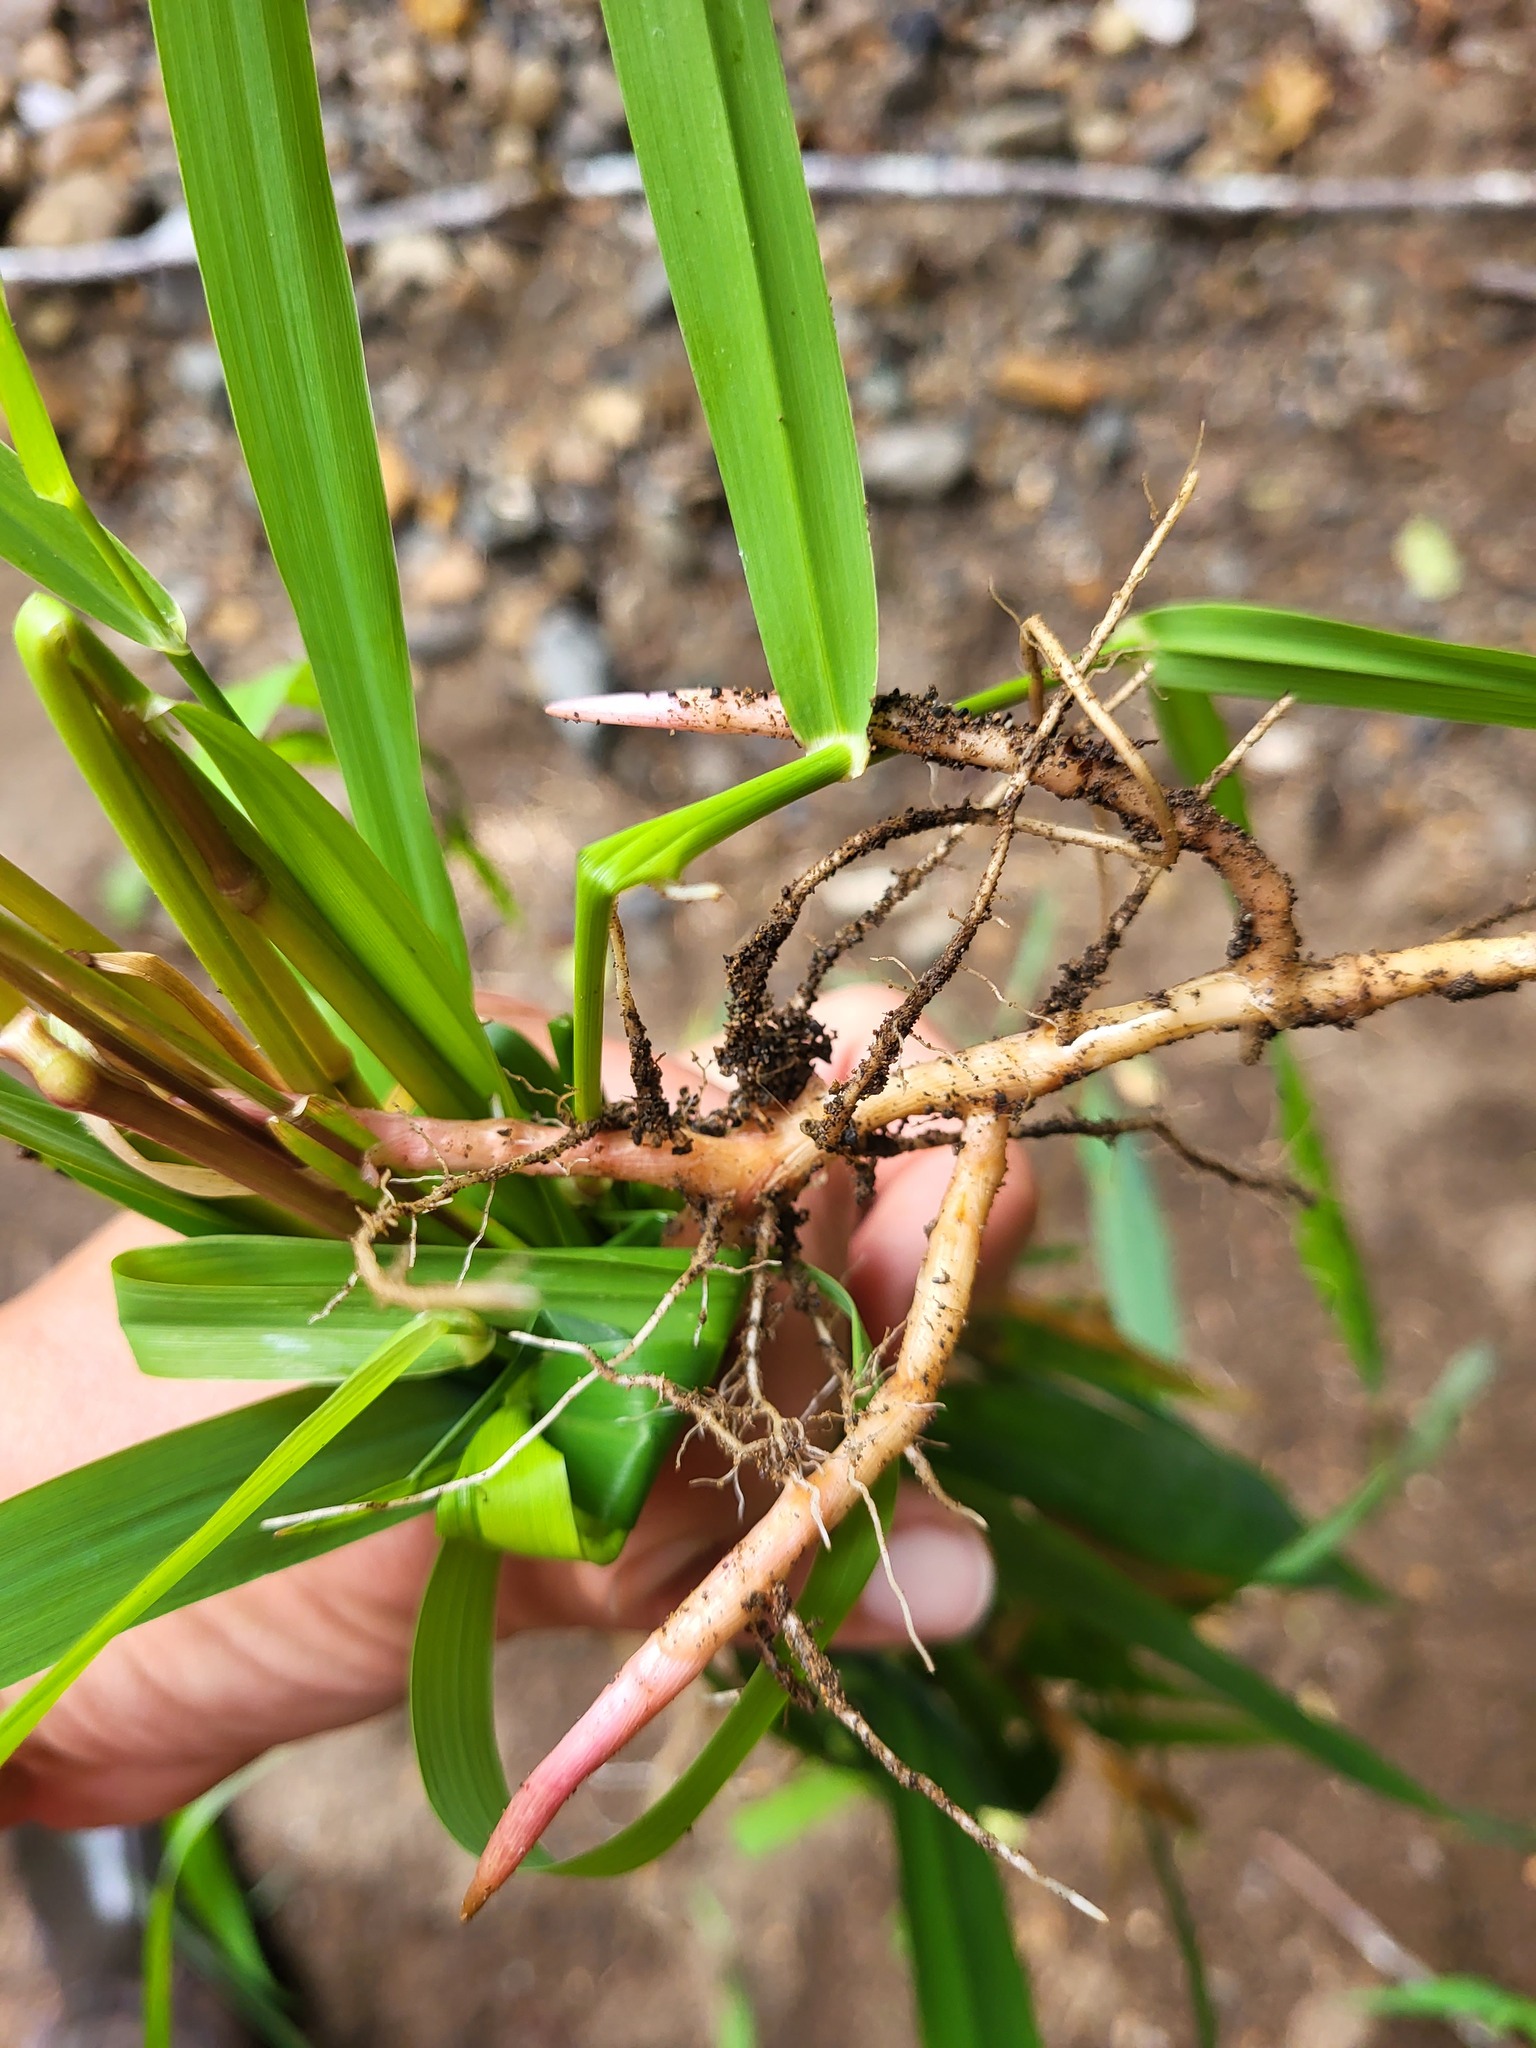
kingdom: Plantae
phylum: Tracheophyta
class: Liliopsida
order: Poales
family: Poaceae
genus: Phalaris
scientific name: Phalaris arundinacea
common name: Reed canary-grass
